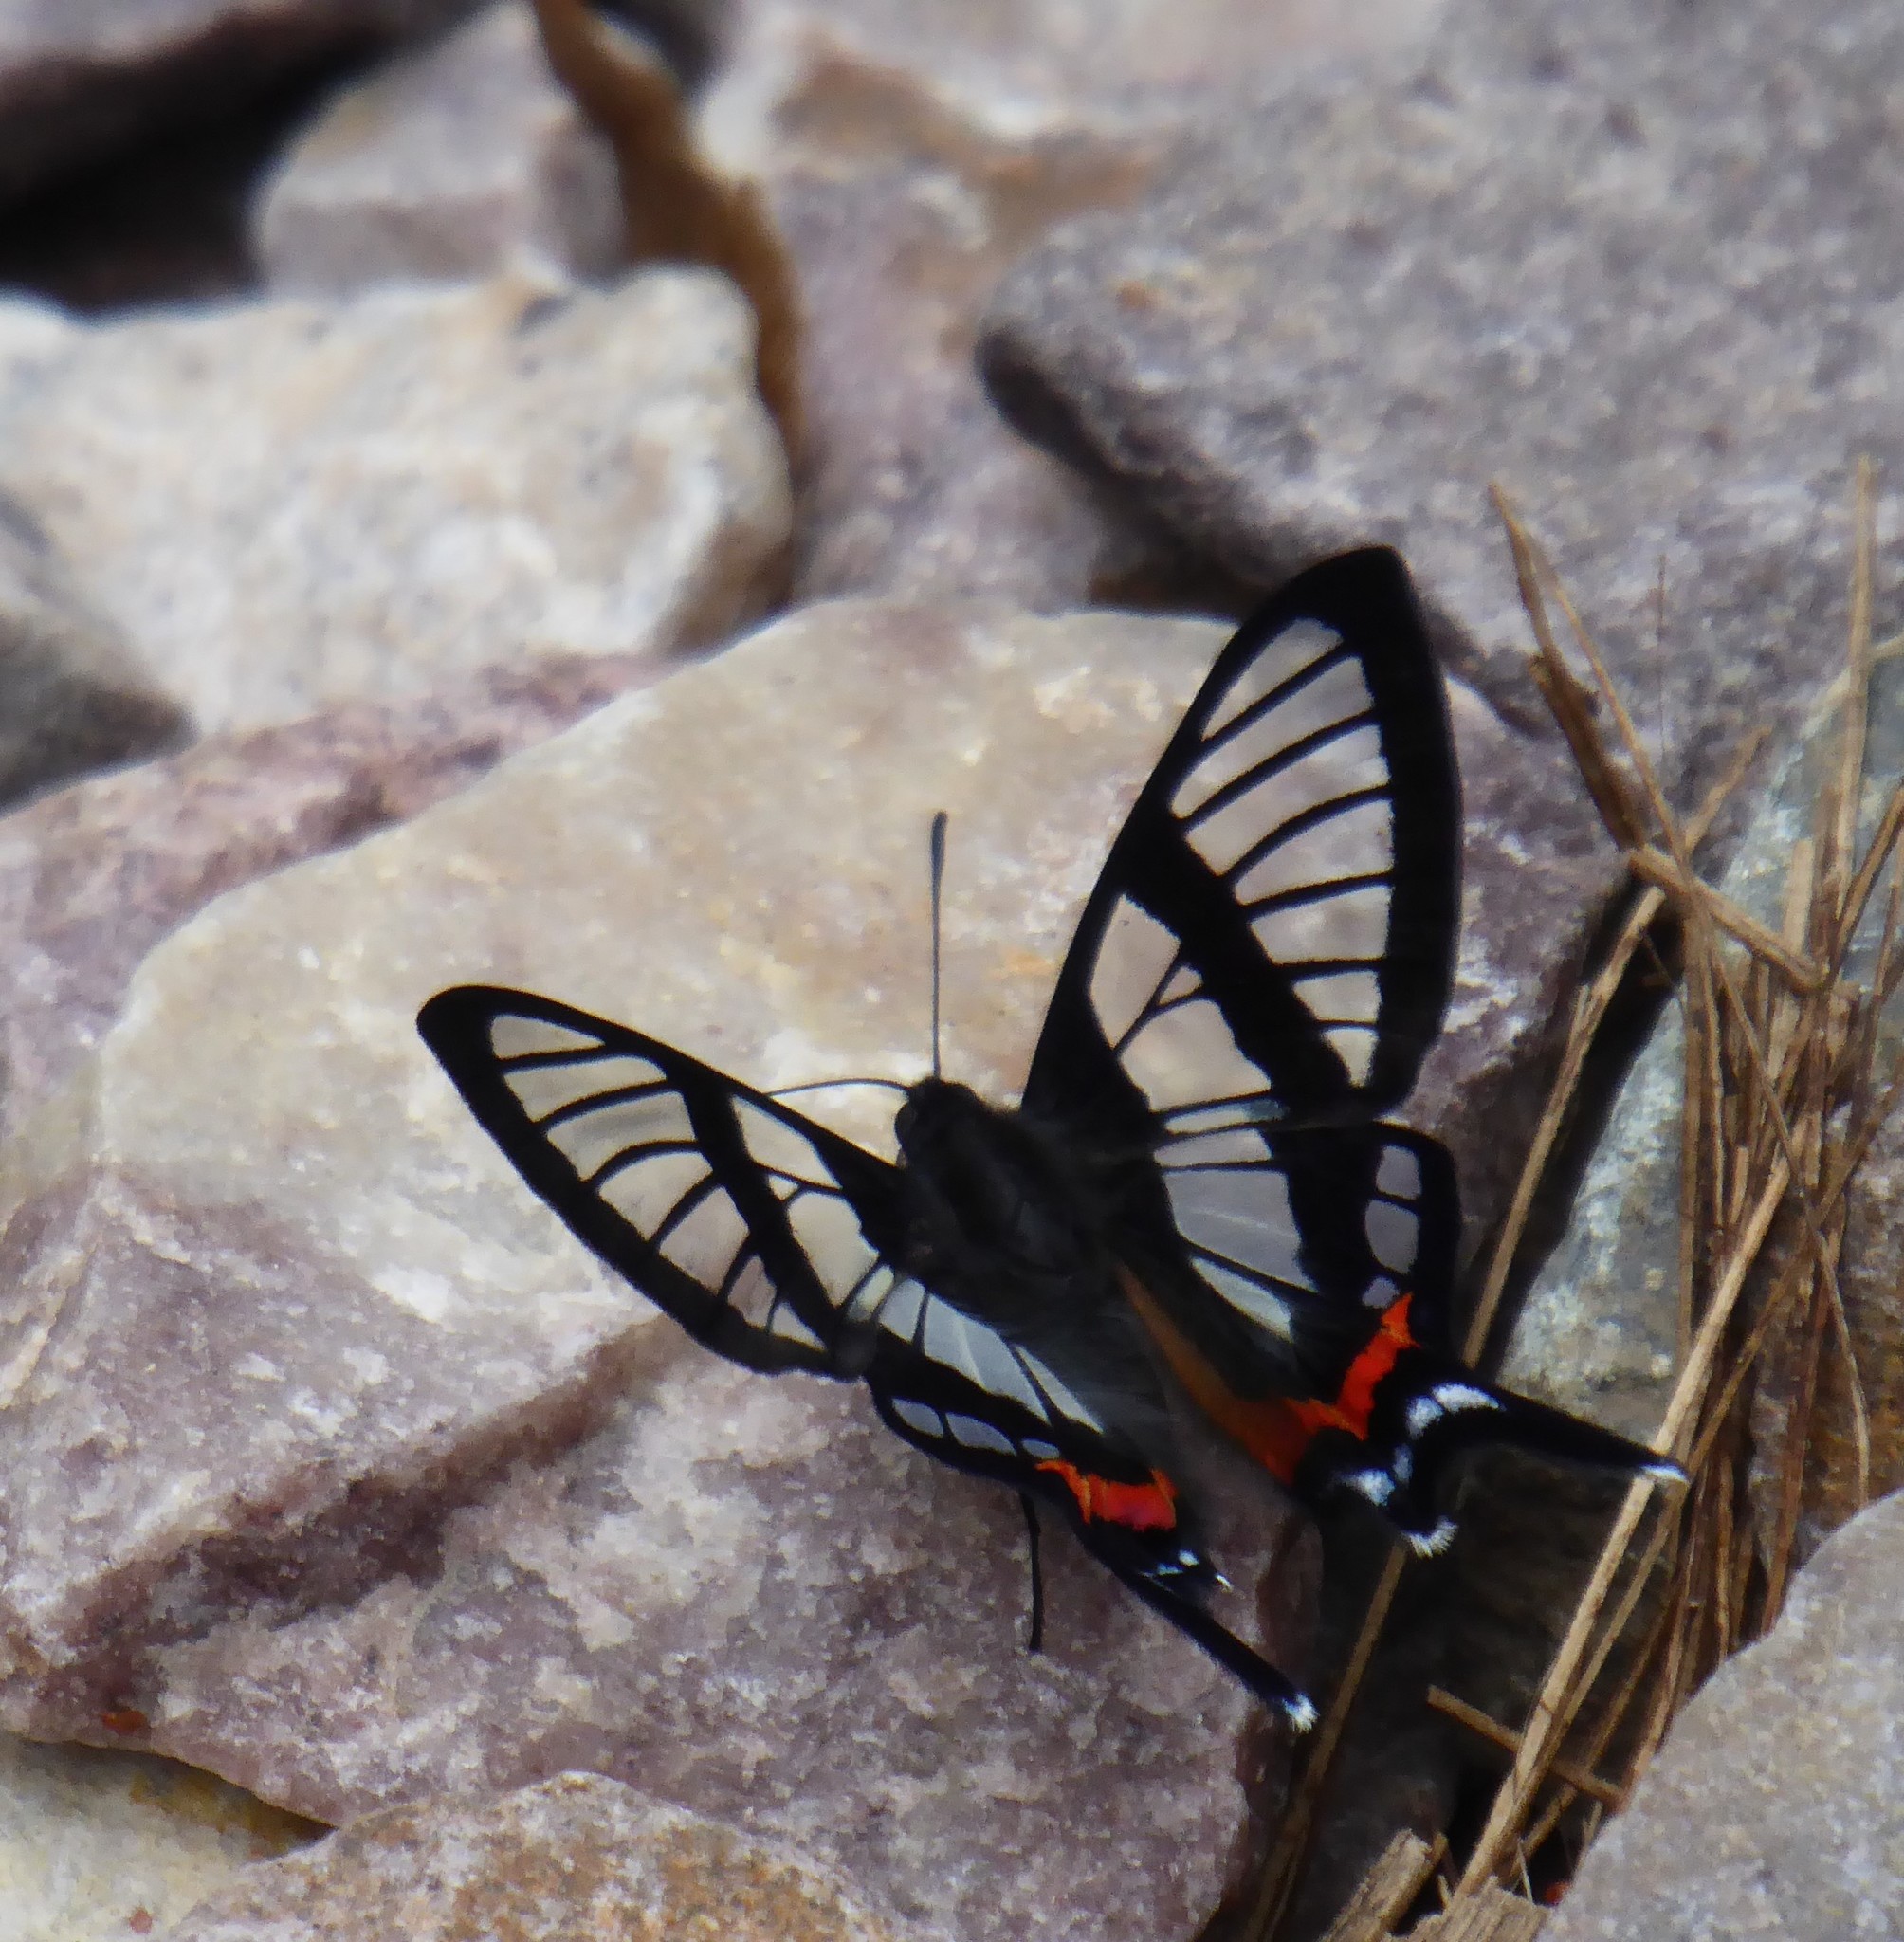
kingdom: Animalia
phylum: Arthropoda
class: Insecta
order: Lepidoptera
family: Riodinidae
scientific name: Riodinidae
